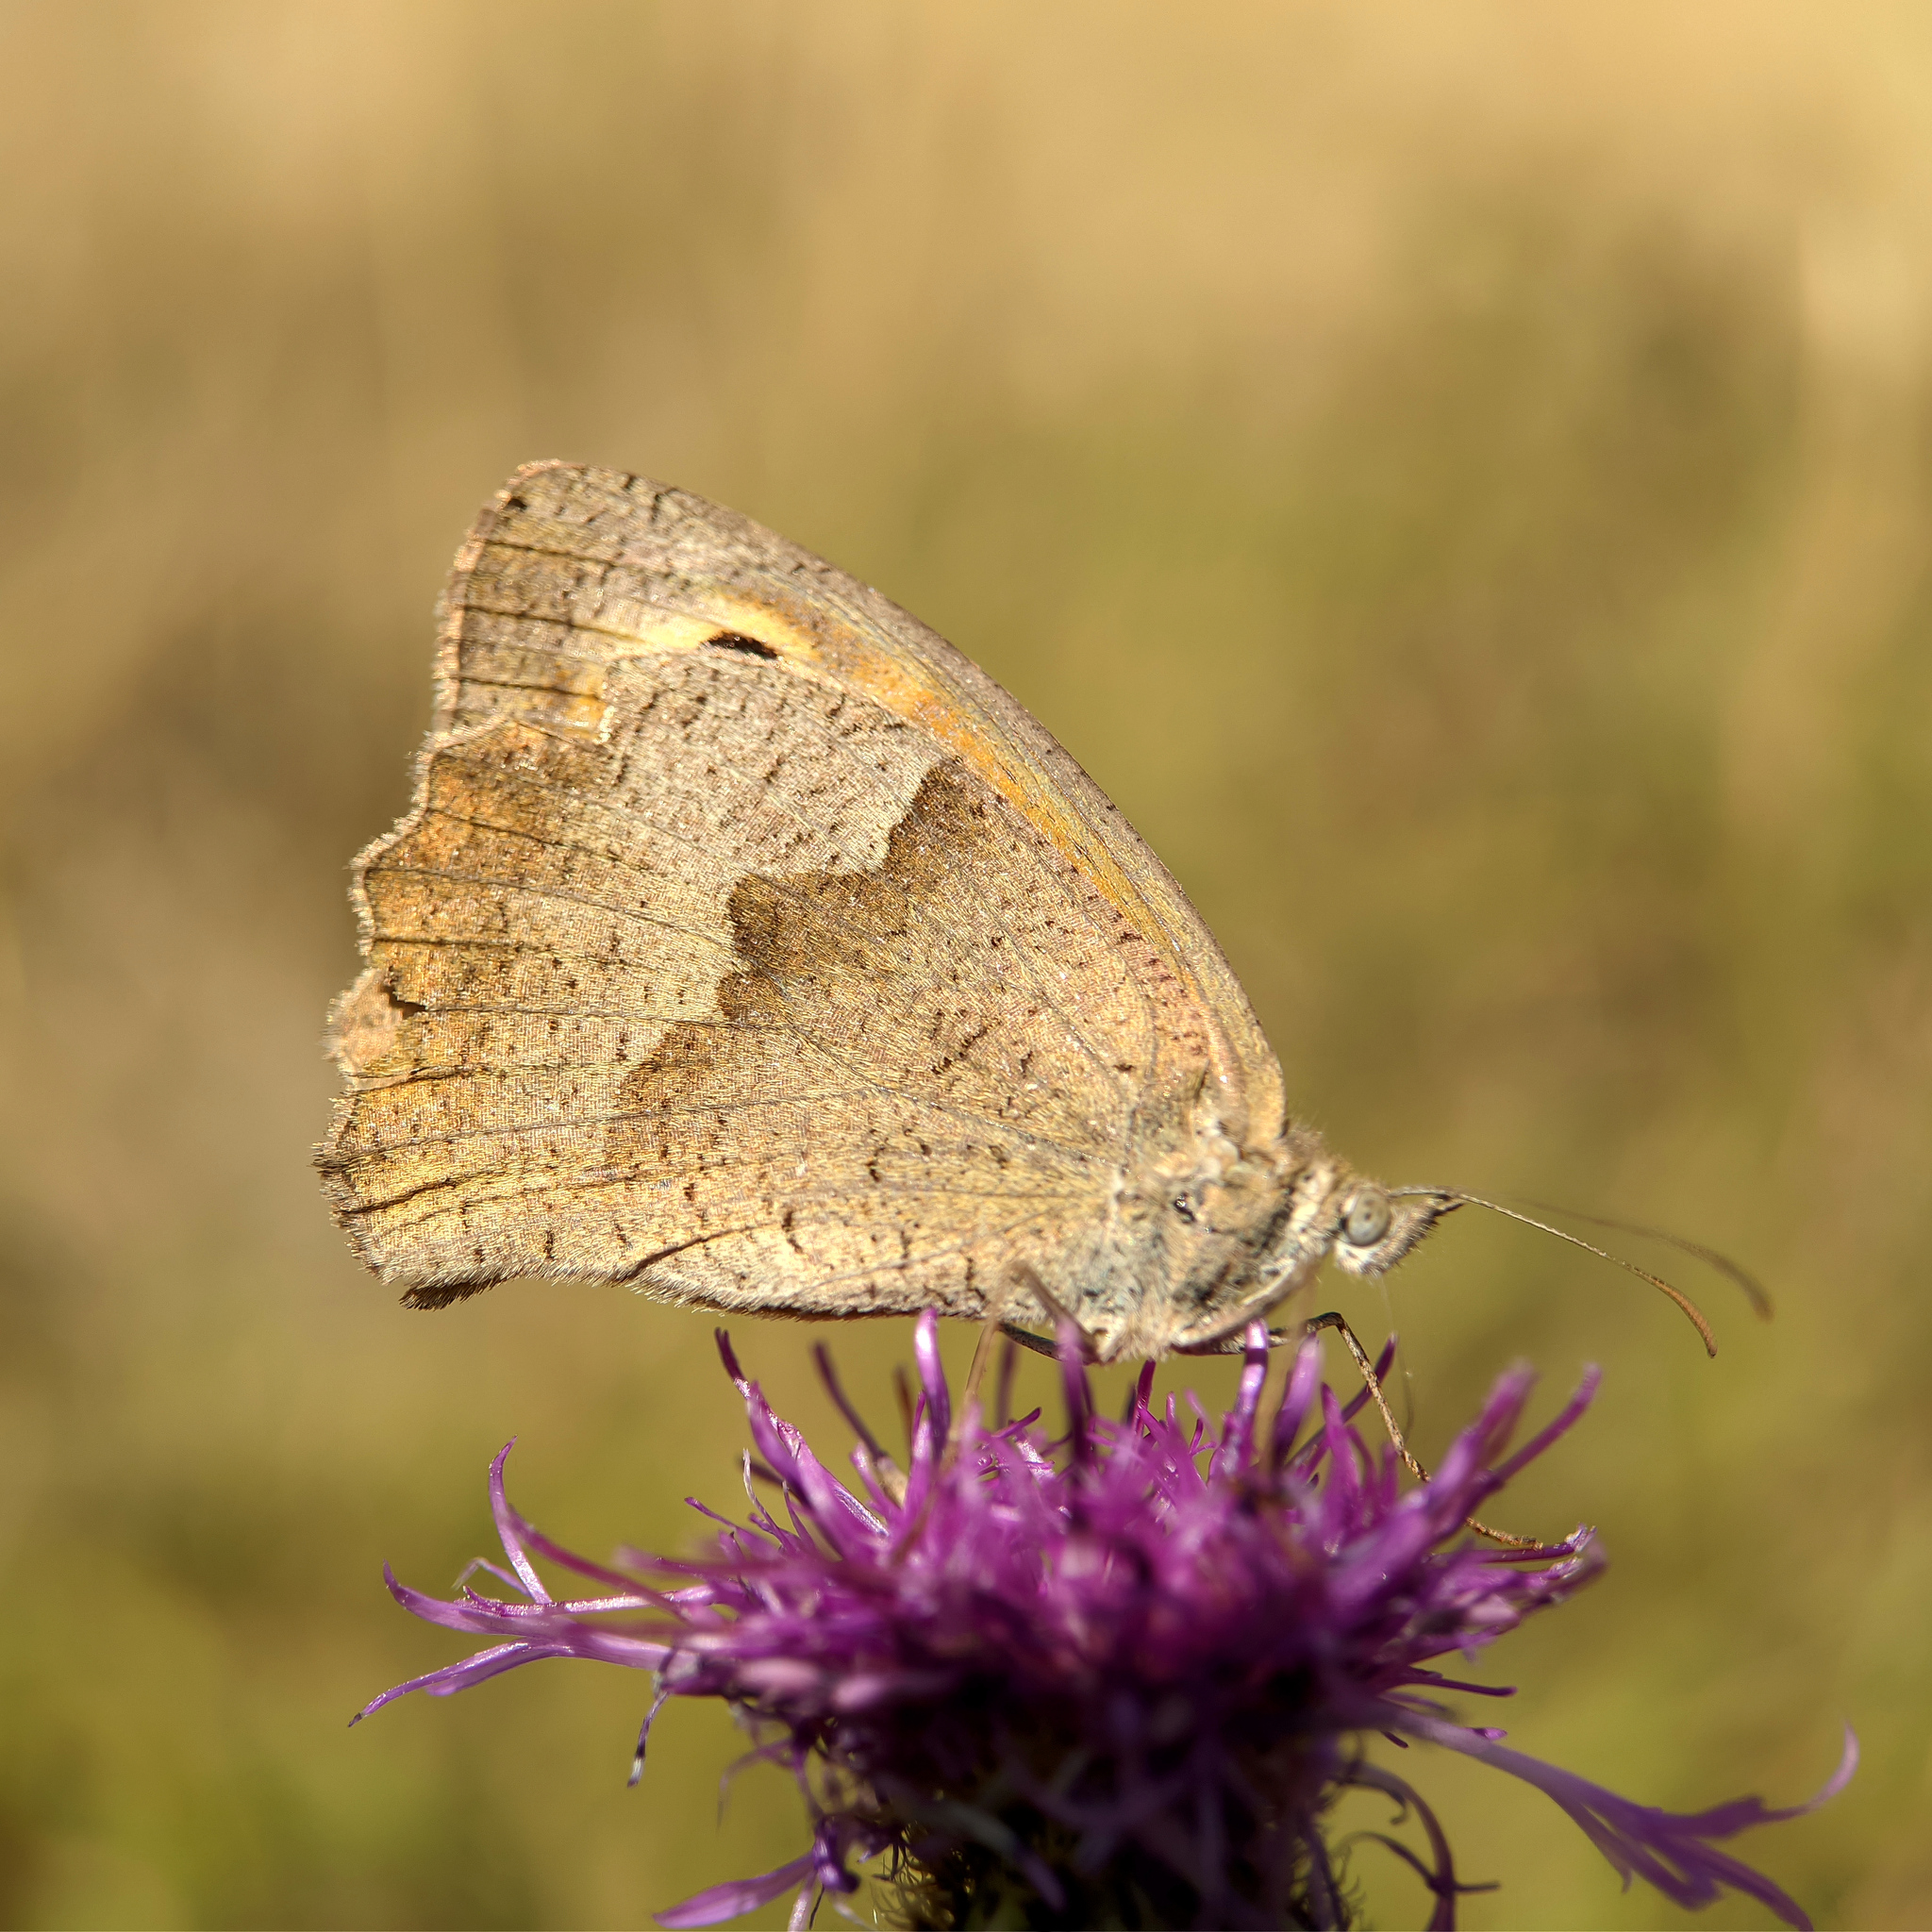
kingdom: Animalia
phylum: Arthropoda
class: Insecta
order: Lepidoptera
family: Nymphalidae
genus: Maniola
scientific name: Maniola jurtina
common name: Meadow brown
